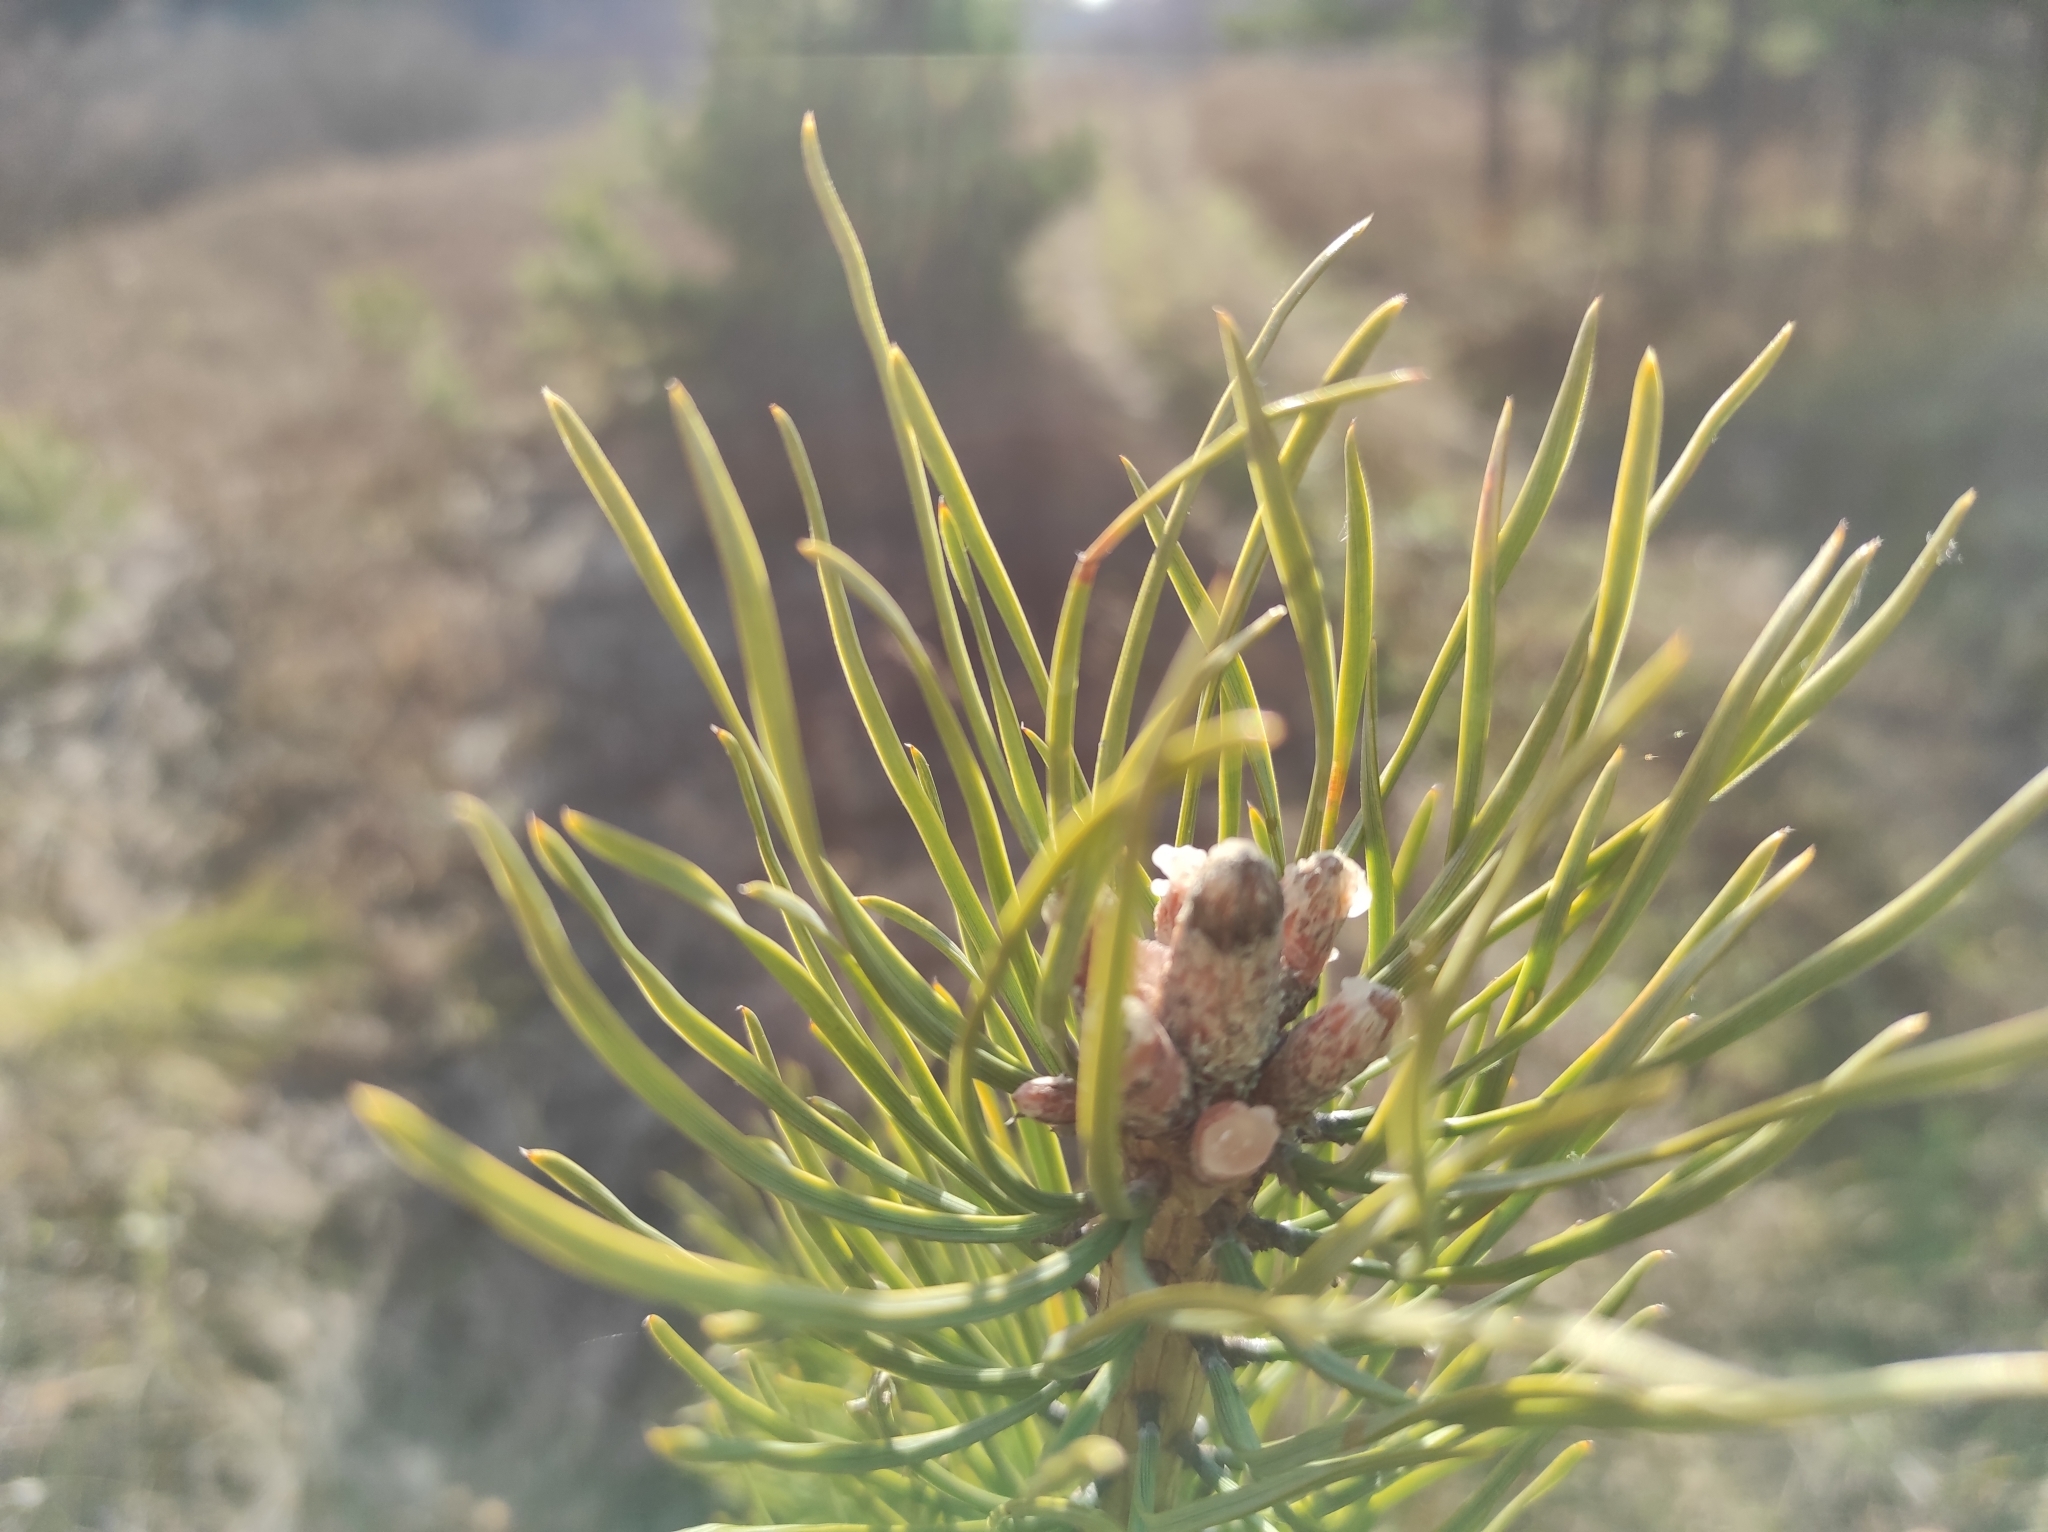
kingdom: Plantae
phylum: Tracheophyta
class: Pinopsida
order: Pinales
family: Pinaceae
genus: Pinus
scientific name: Pinus sylvestris
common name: Scots pine
